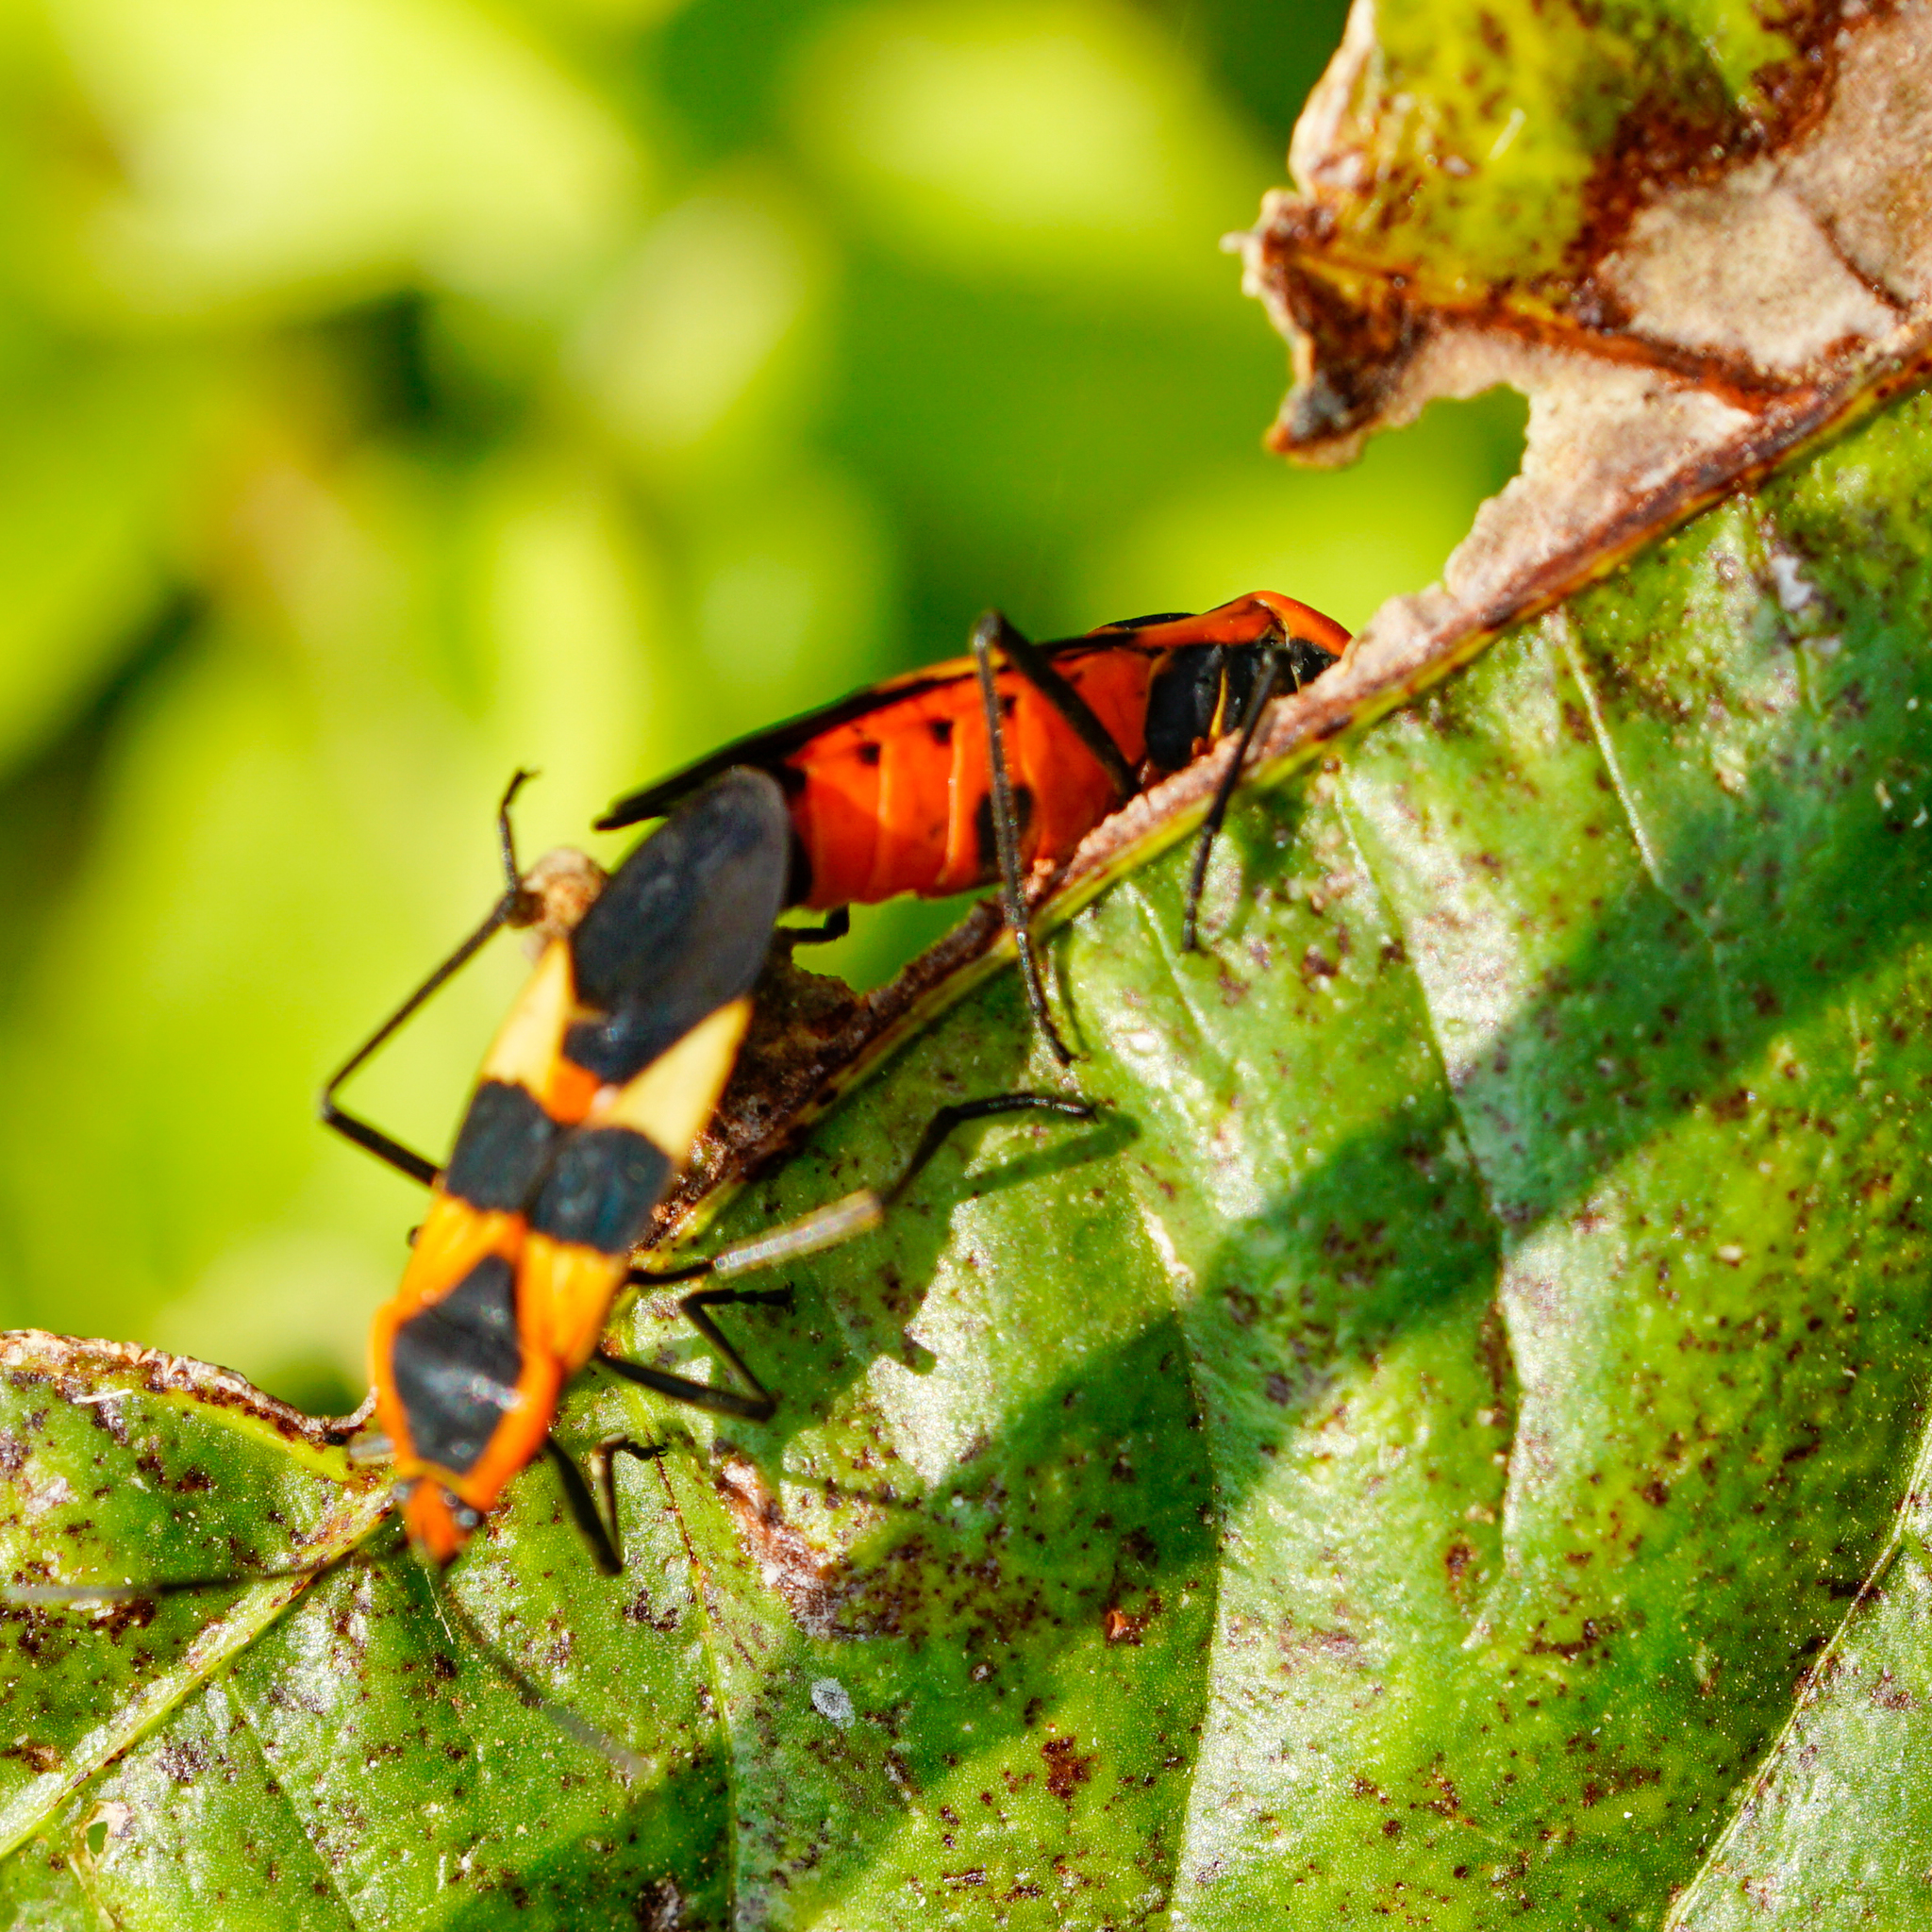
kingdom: Animalia
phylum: Arthropoda
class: Insecta
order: Hemiptera
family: Lygaeidae
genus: Oncopeltus
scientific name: Oncopeltus fasciatus
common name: Large milkweed bug
